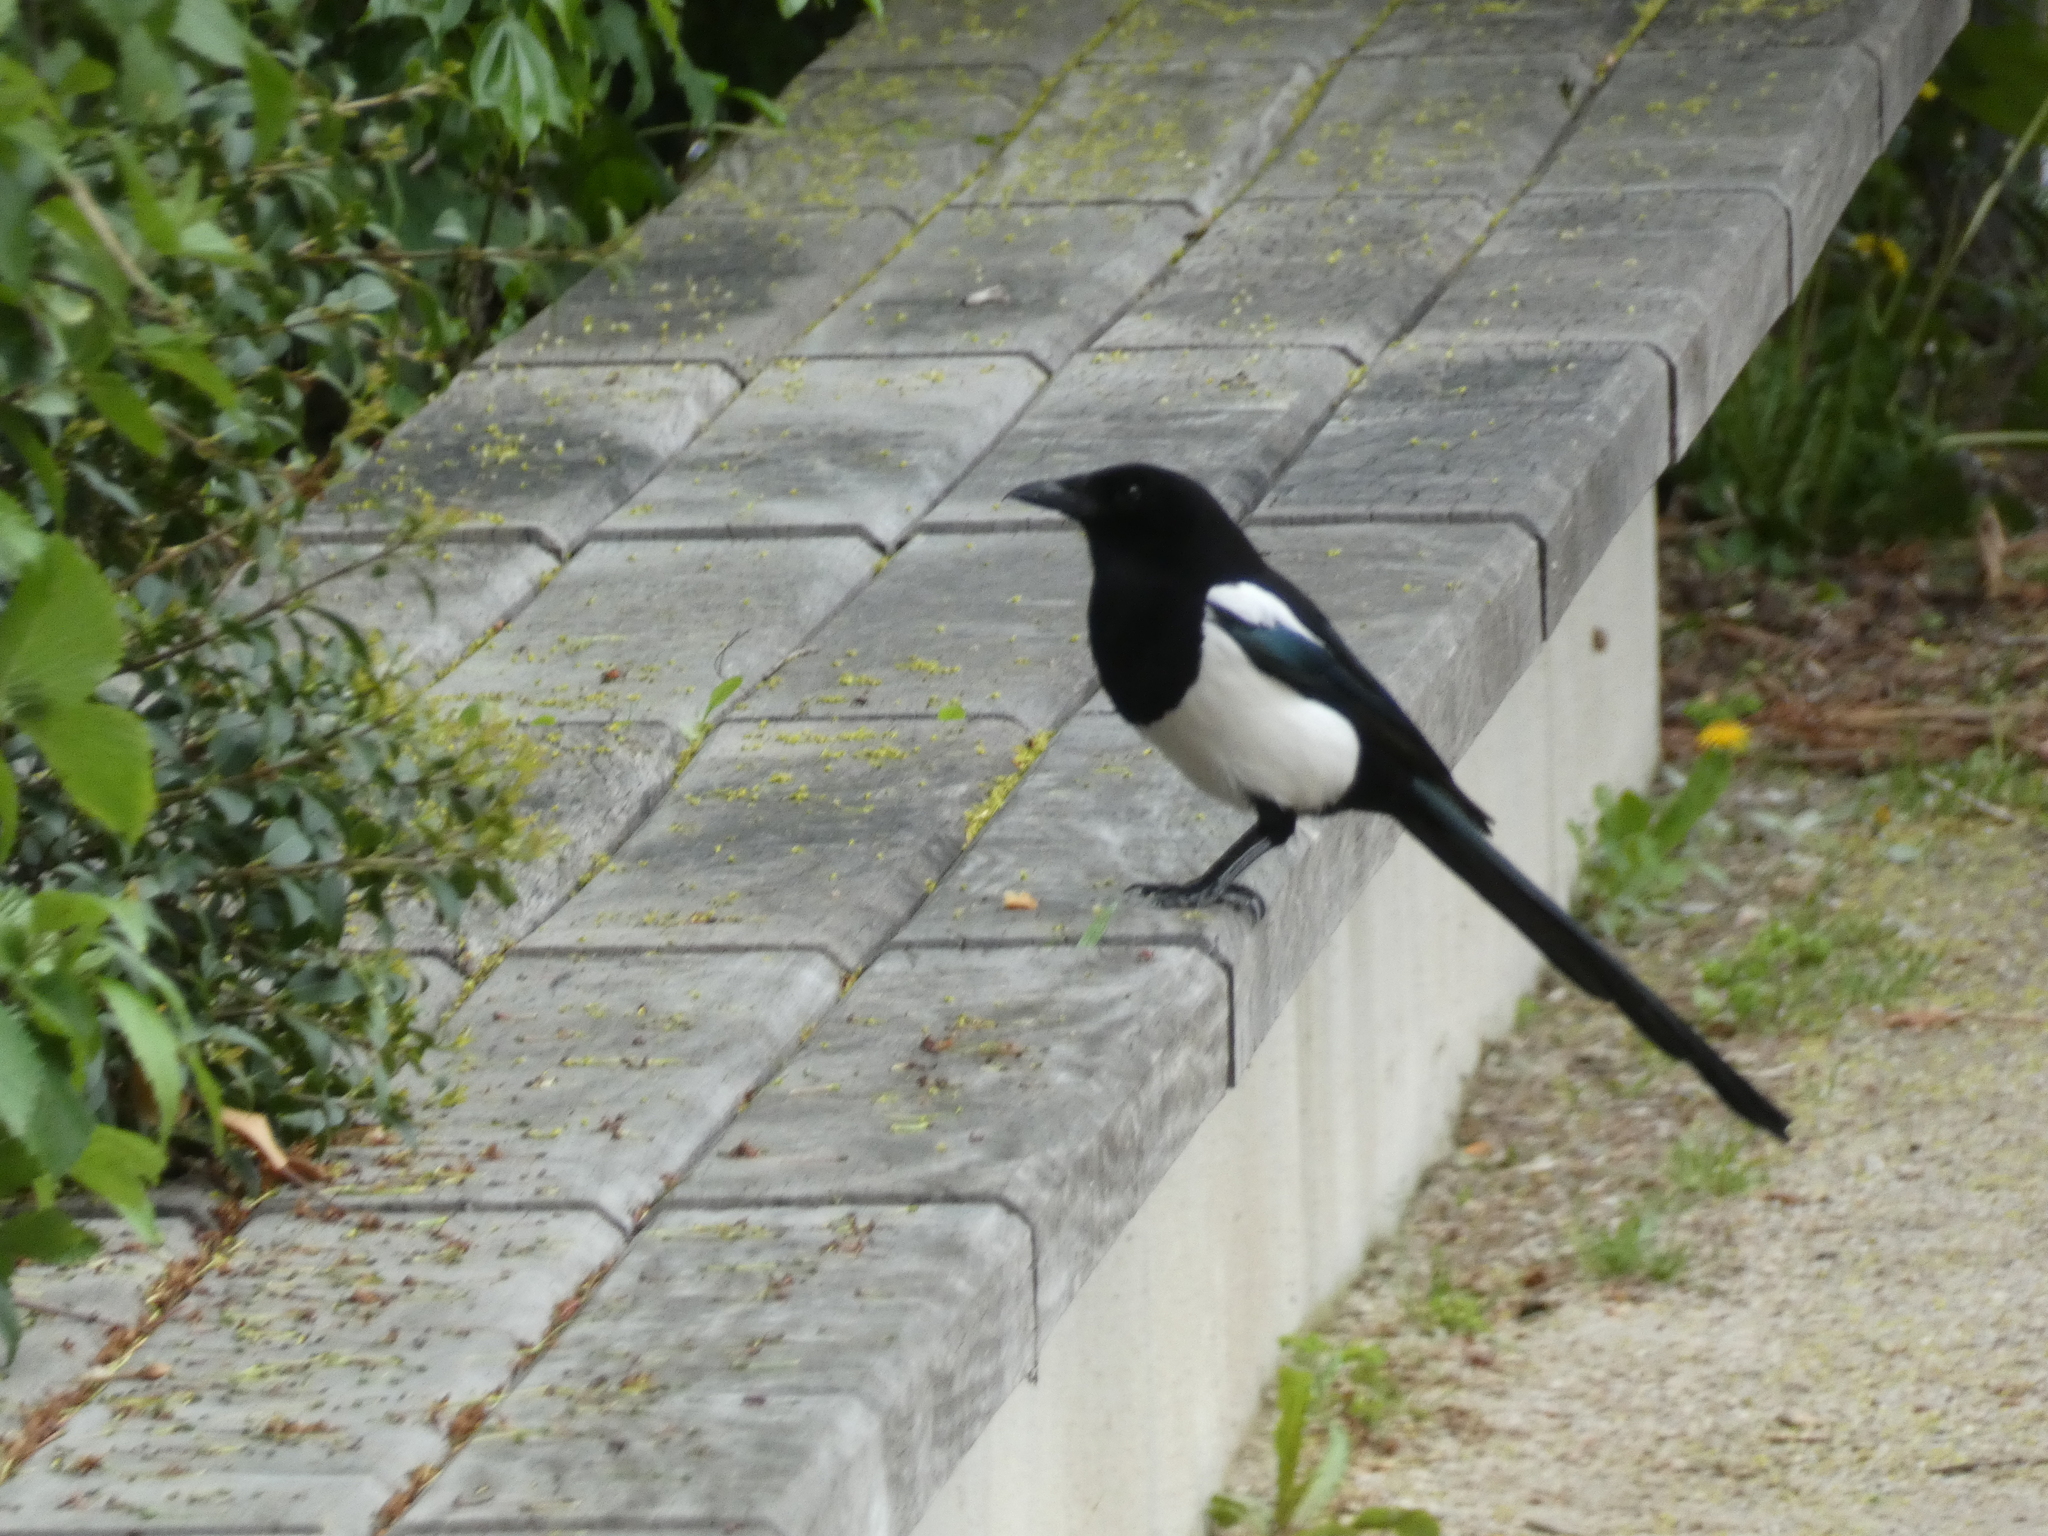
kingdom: Animalia
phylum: Chordata
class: Aves
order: Passeriformes
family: Corvidae
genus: Pica
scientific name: Pica pica
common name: Eurasian magpie
